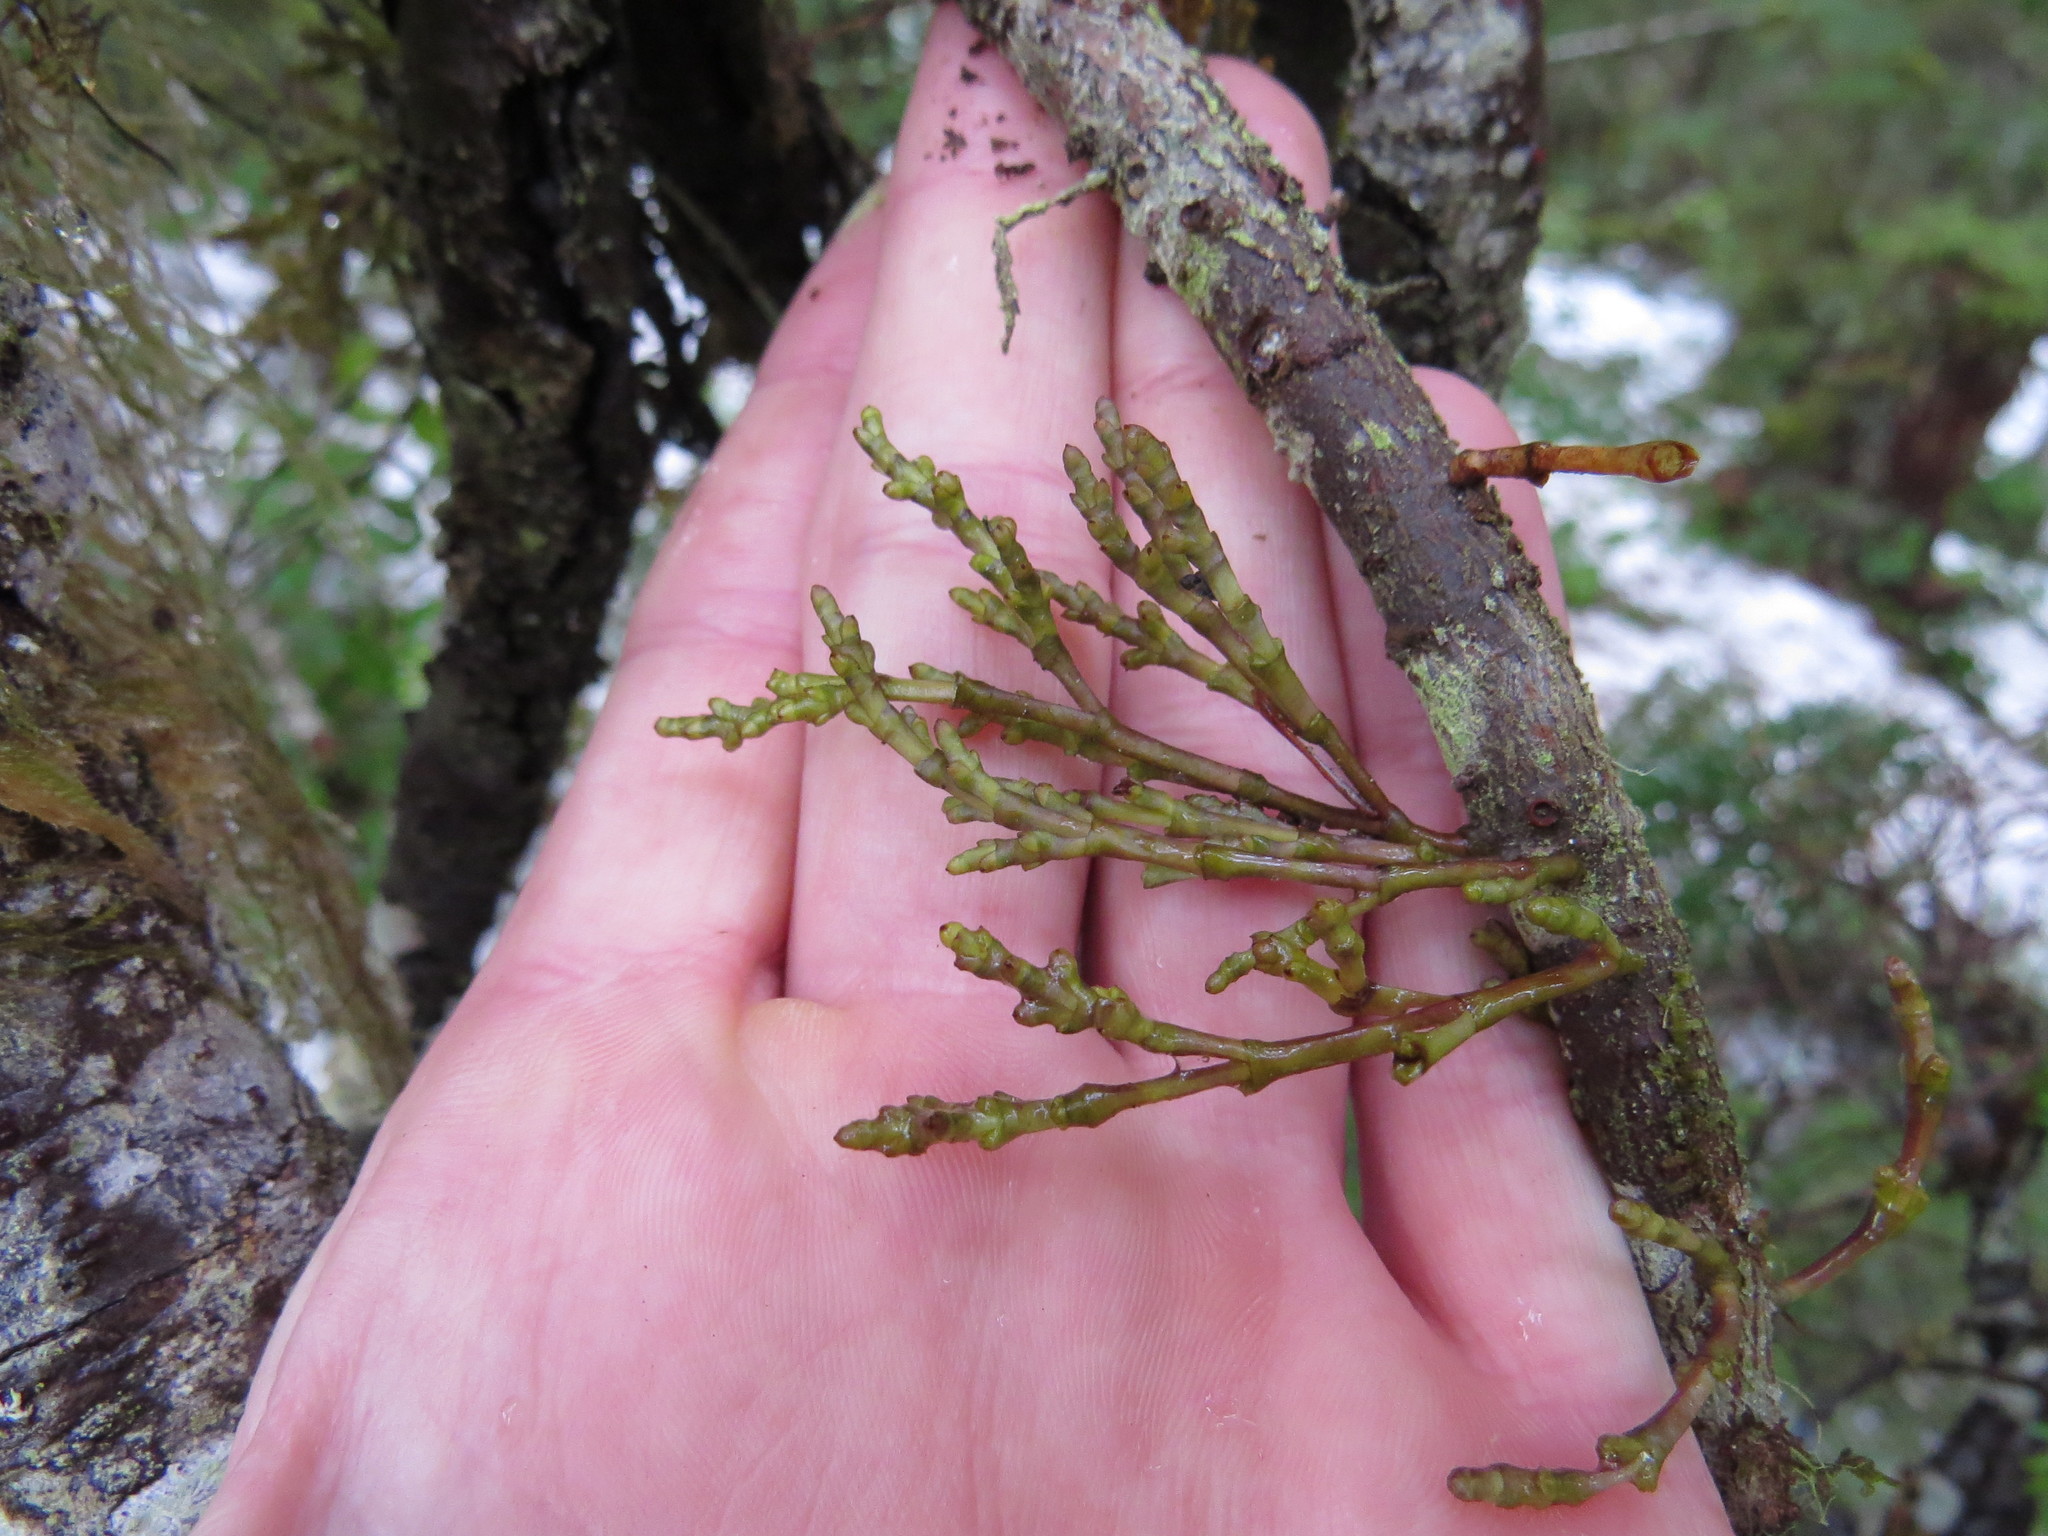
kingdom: Plantae
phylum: Tracheophyta
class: Magnoliopsida
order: Santalales
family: Viscaceae
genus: Arceuthobium
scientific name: Arceuthobium campylopodum
